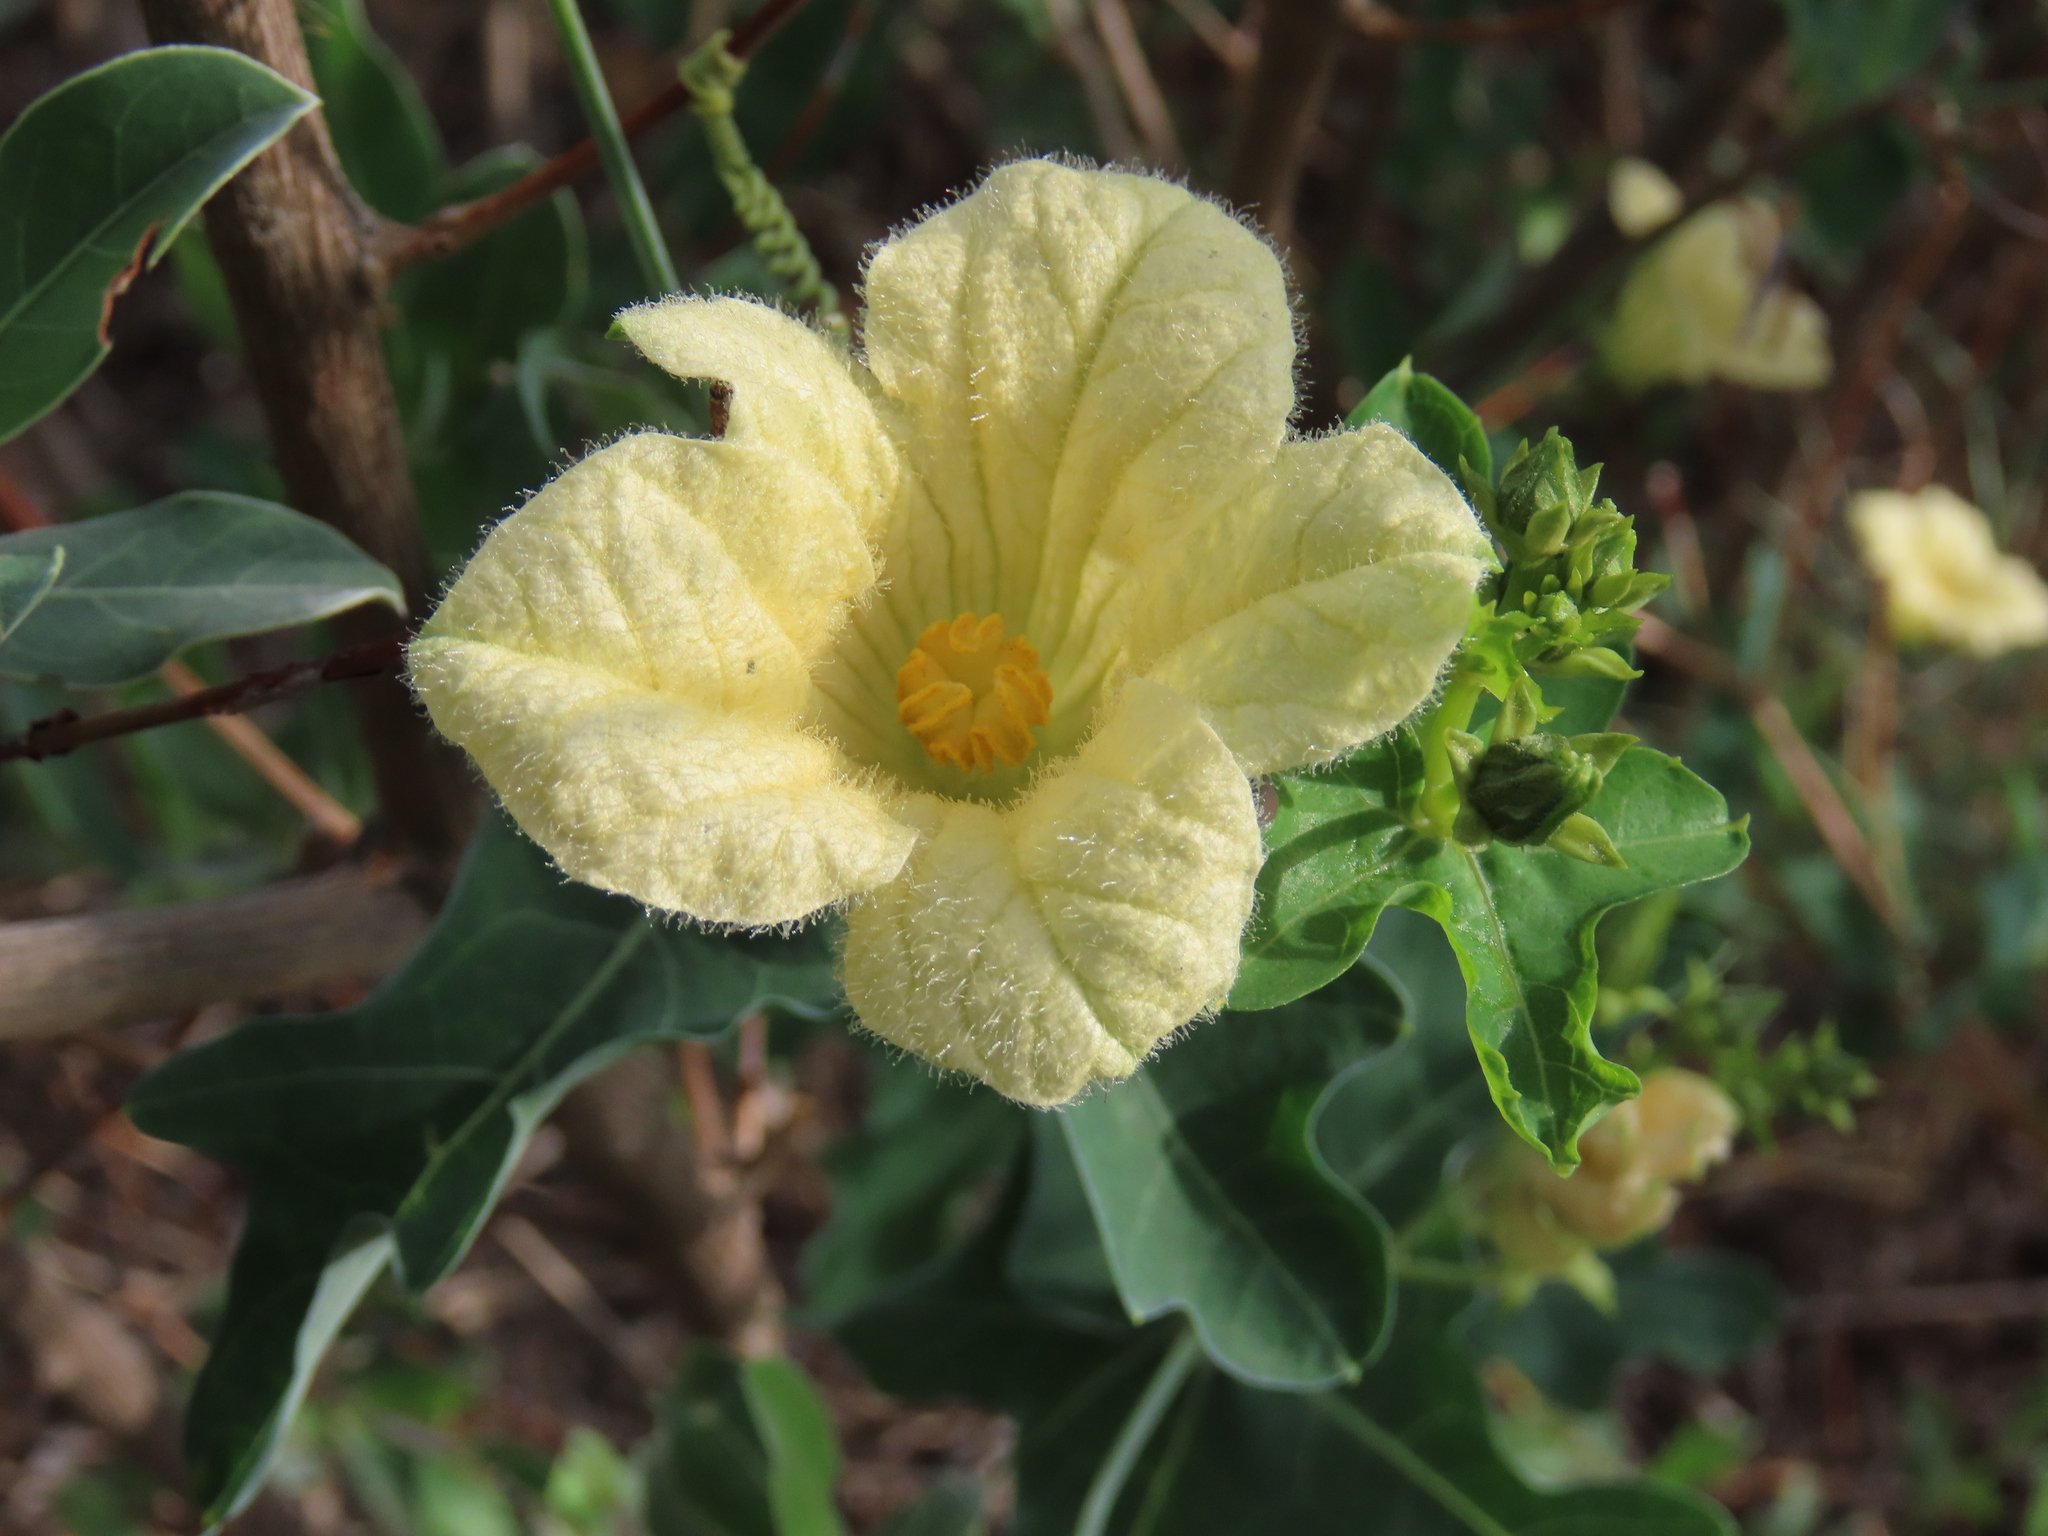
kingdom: Plantae
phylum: Tracheophyta
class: Magnoliopsida
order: Cucurbitales
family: Cucurbitaceae
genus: Coccinia
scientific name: Coccinia sessilifolia
